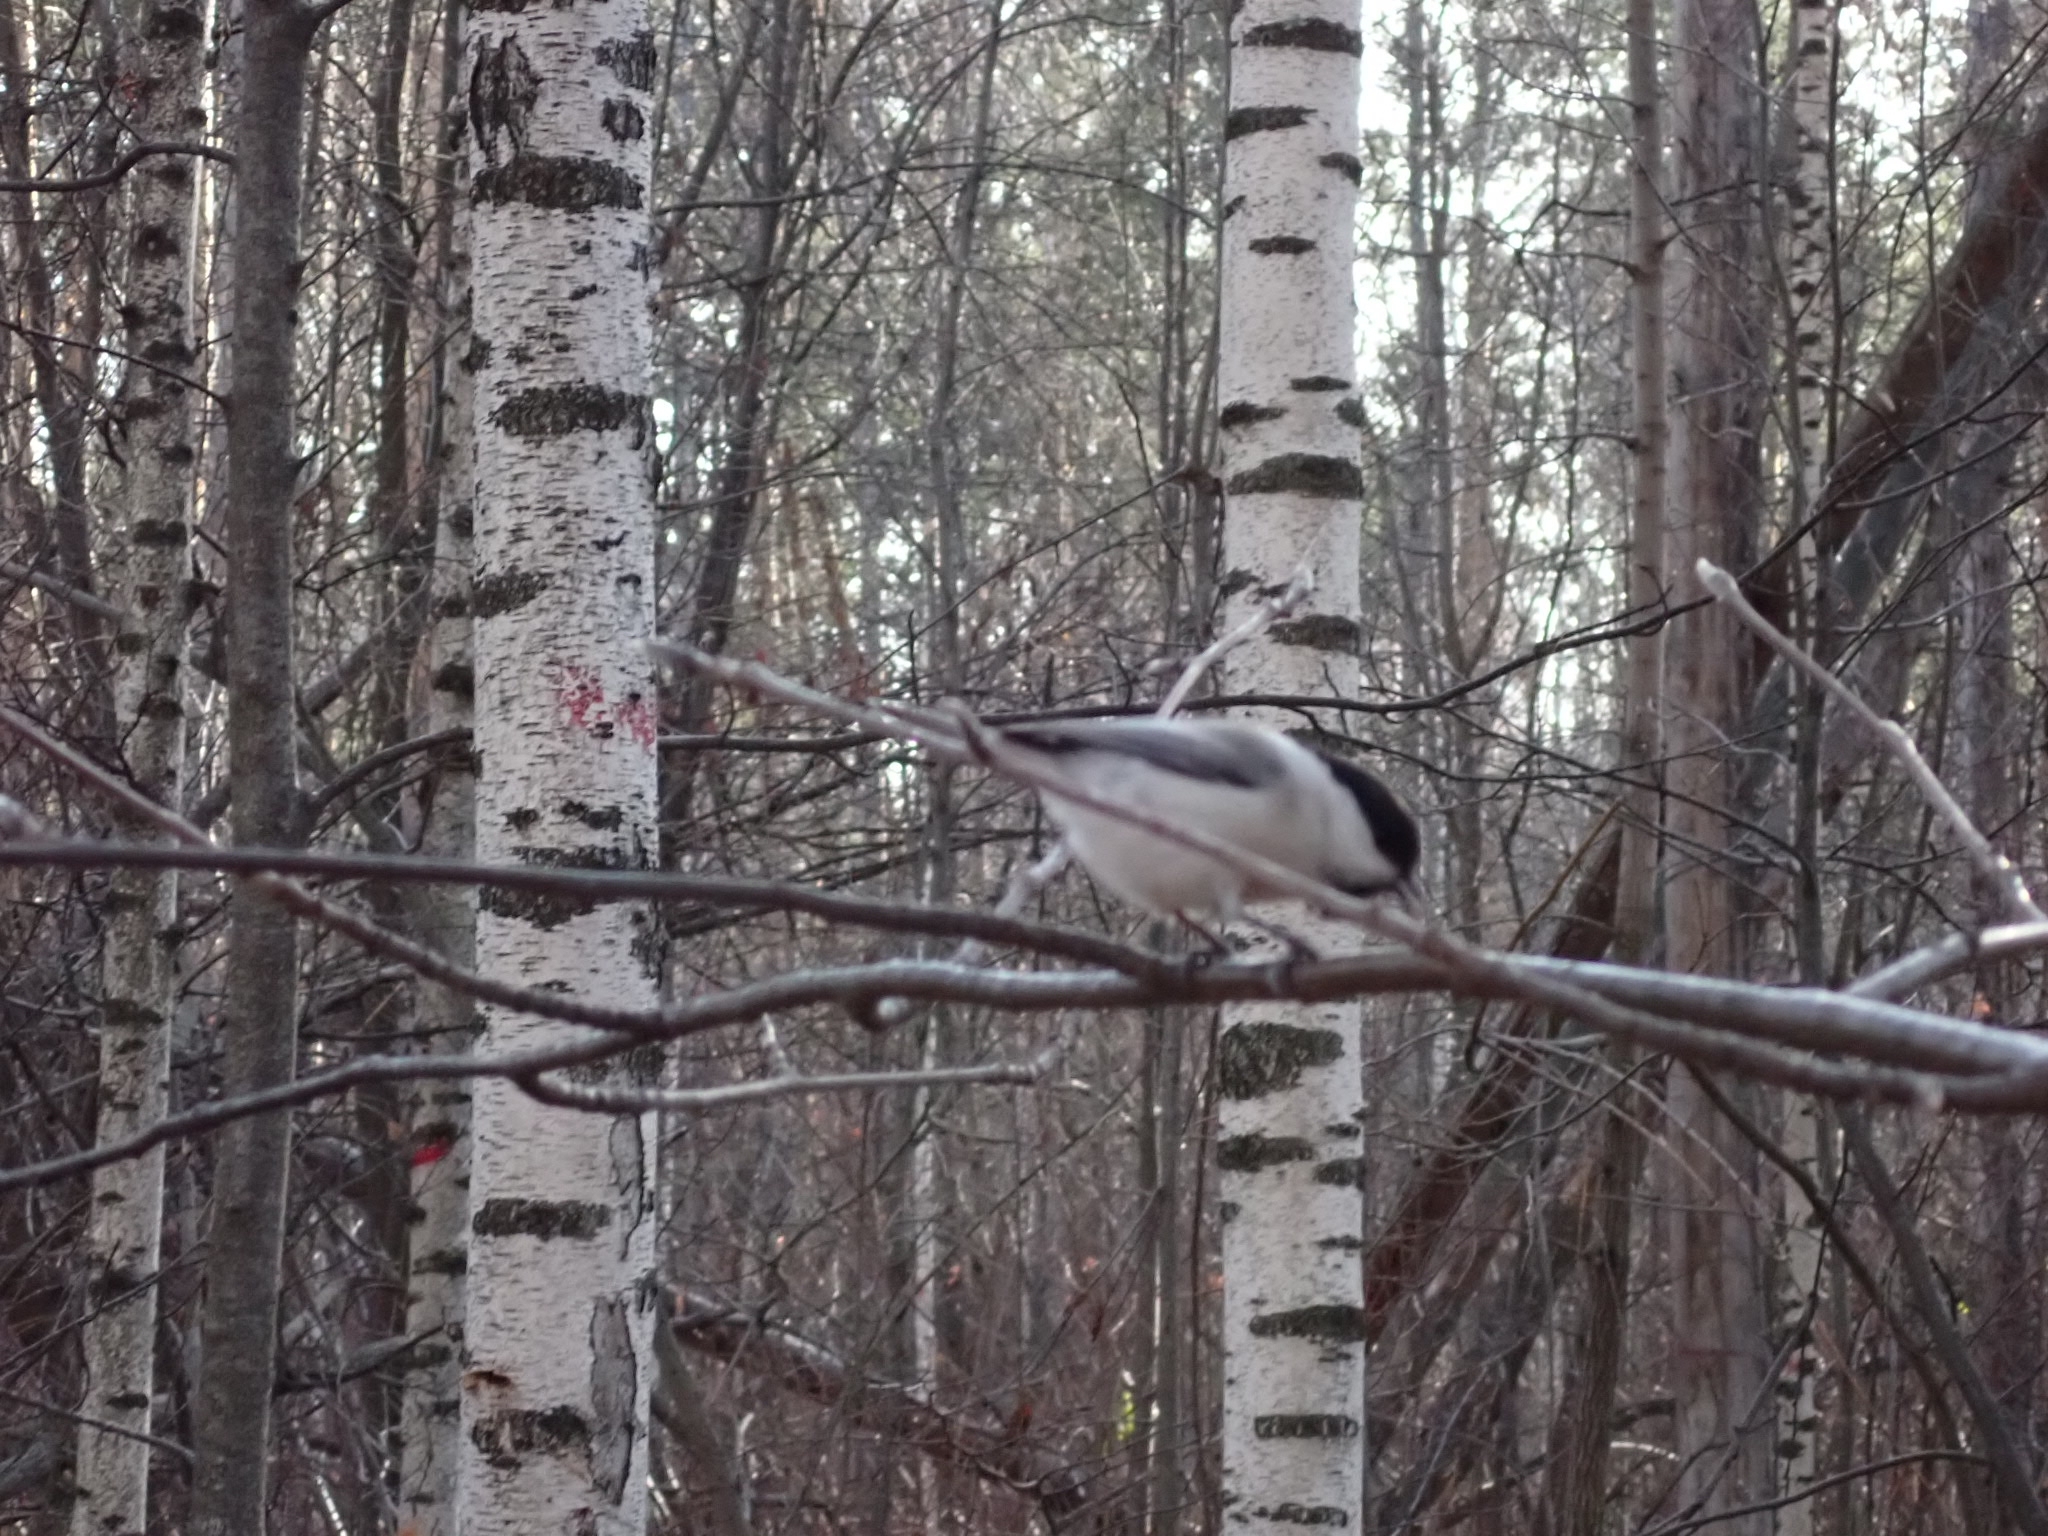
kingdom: Animalia
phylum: Chordata
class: Aves
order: Passeriformes
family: Paridae
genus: Poecile
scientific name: Poecile montanus
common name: Willow tit
